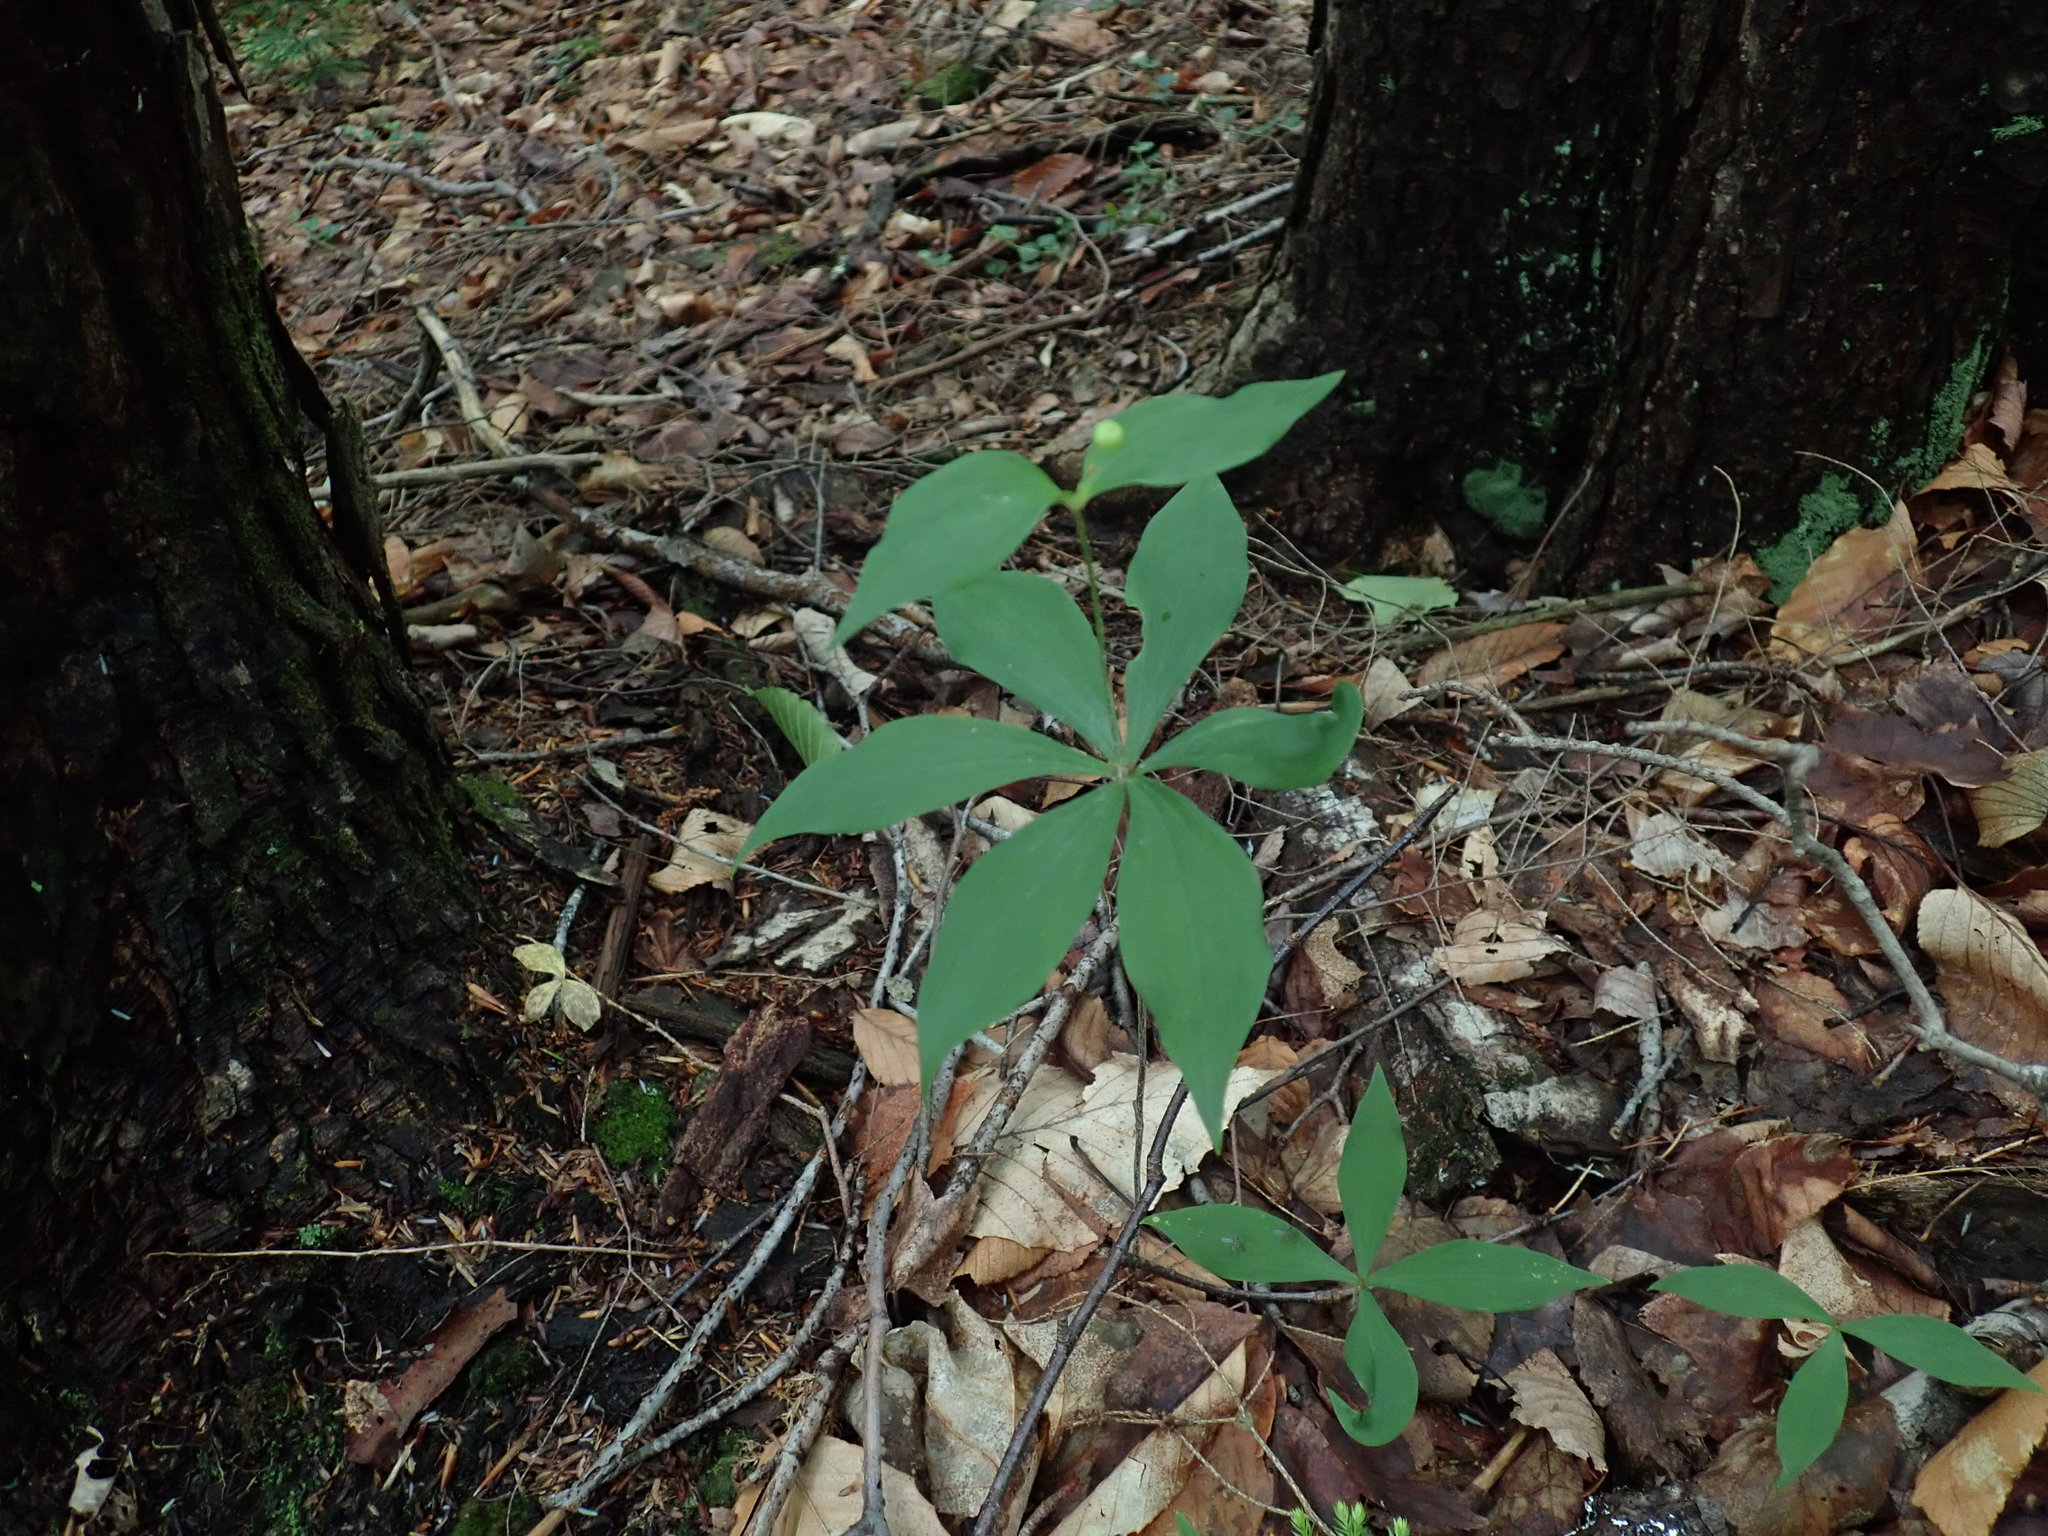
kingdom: Plantae
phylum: Tracheophyta
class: Liliopsida
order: Liliales
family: Liliaceae
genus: Medeola
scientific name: Medeola virginiana
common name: Indian cucumber-root
